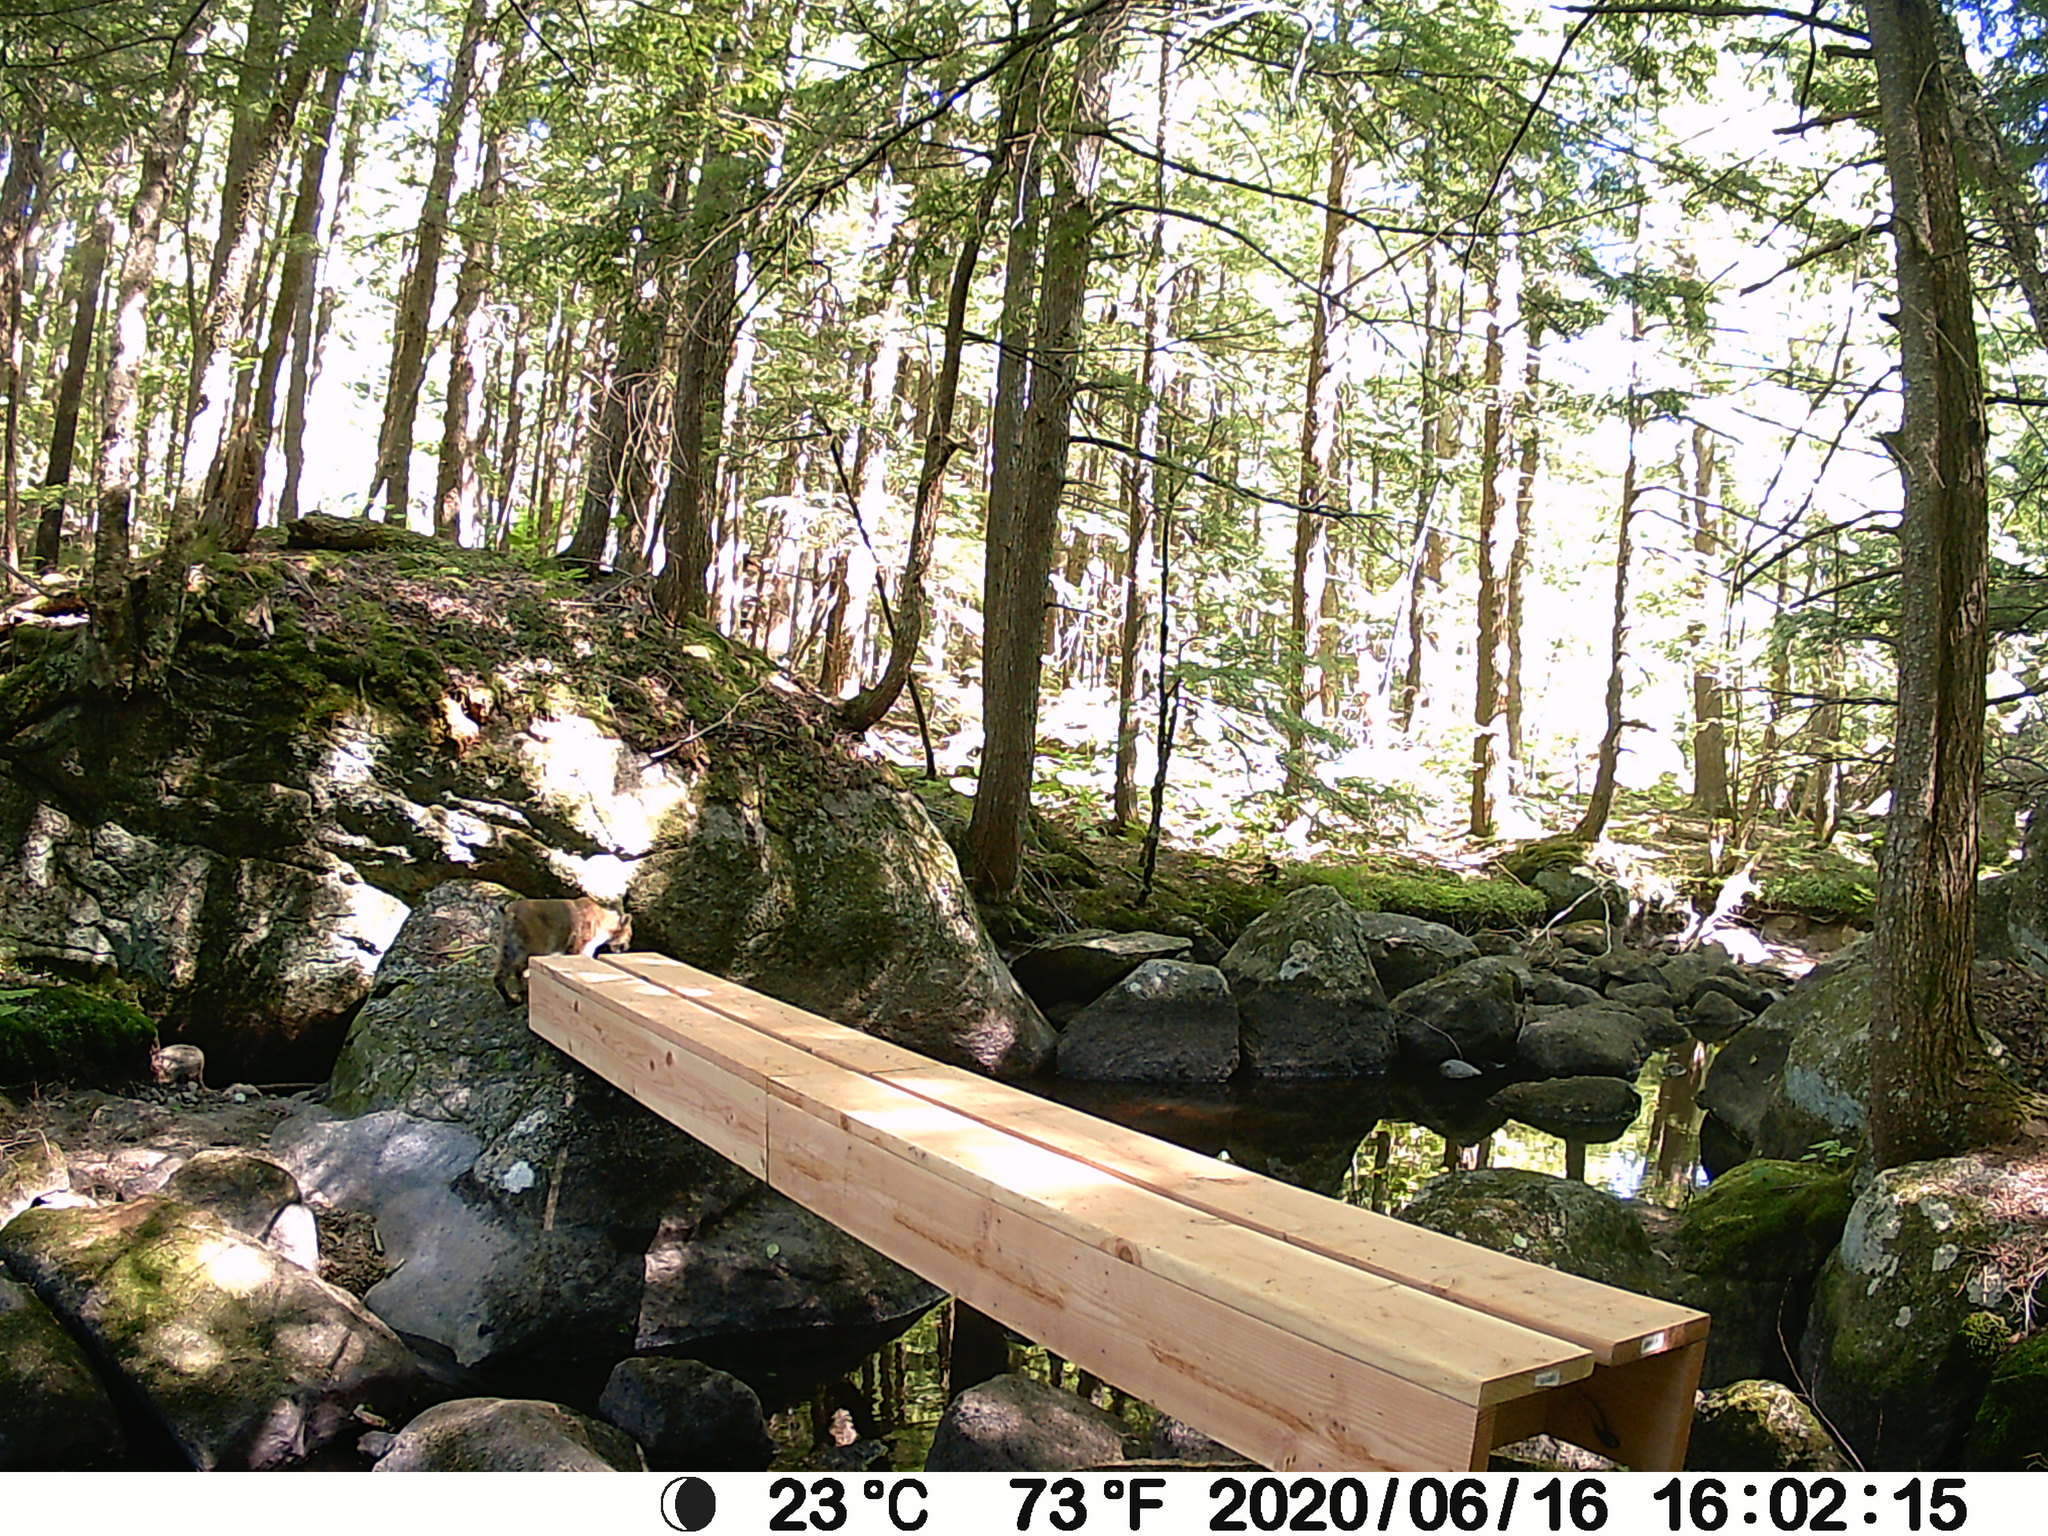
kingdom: Animalia
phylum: Chordata
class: Mammalia
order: Carnivora
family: Felidae
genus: Lynx
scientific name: Lynx rufus
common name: Bobcat
